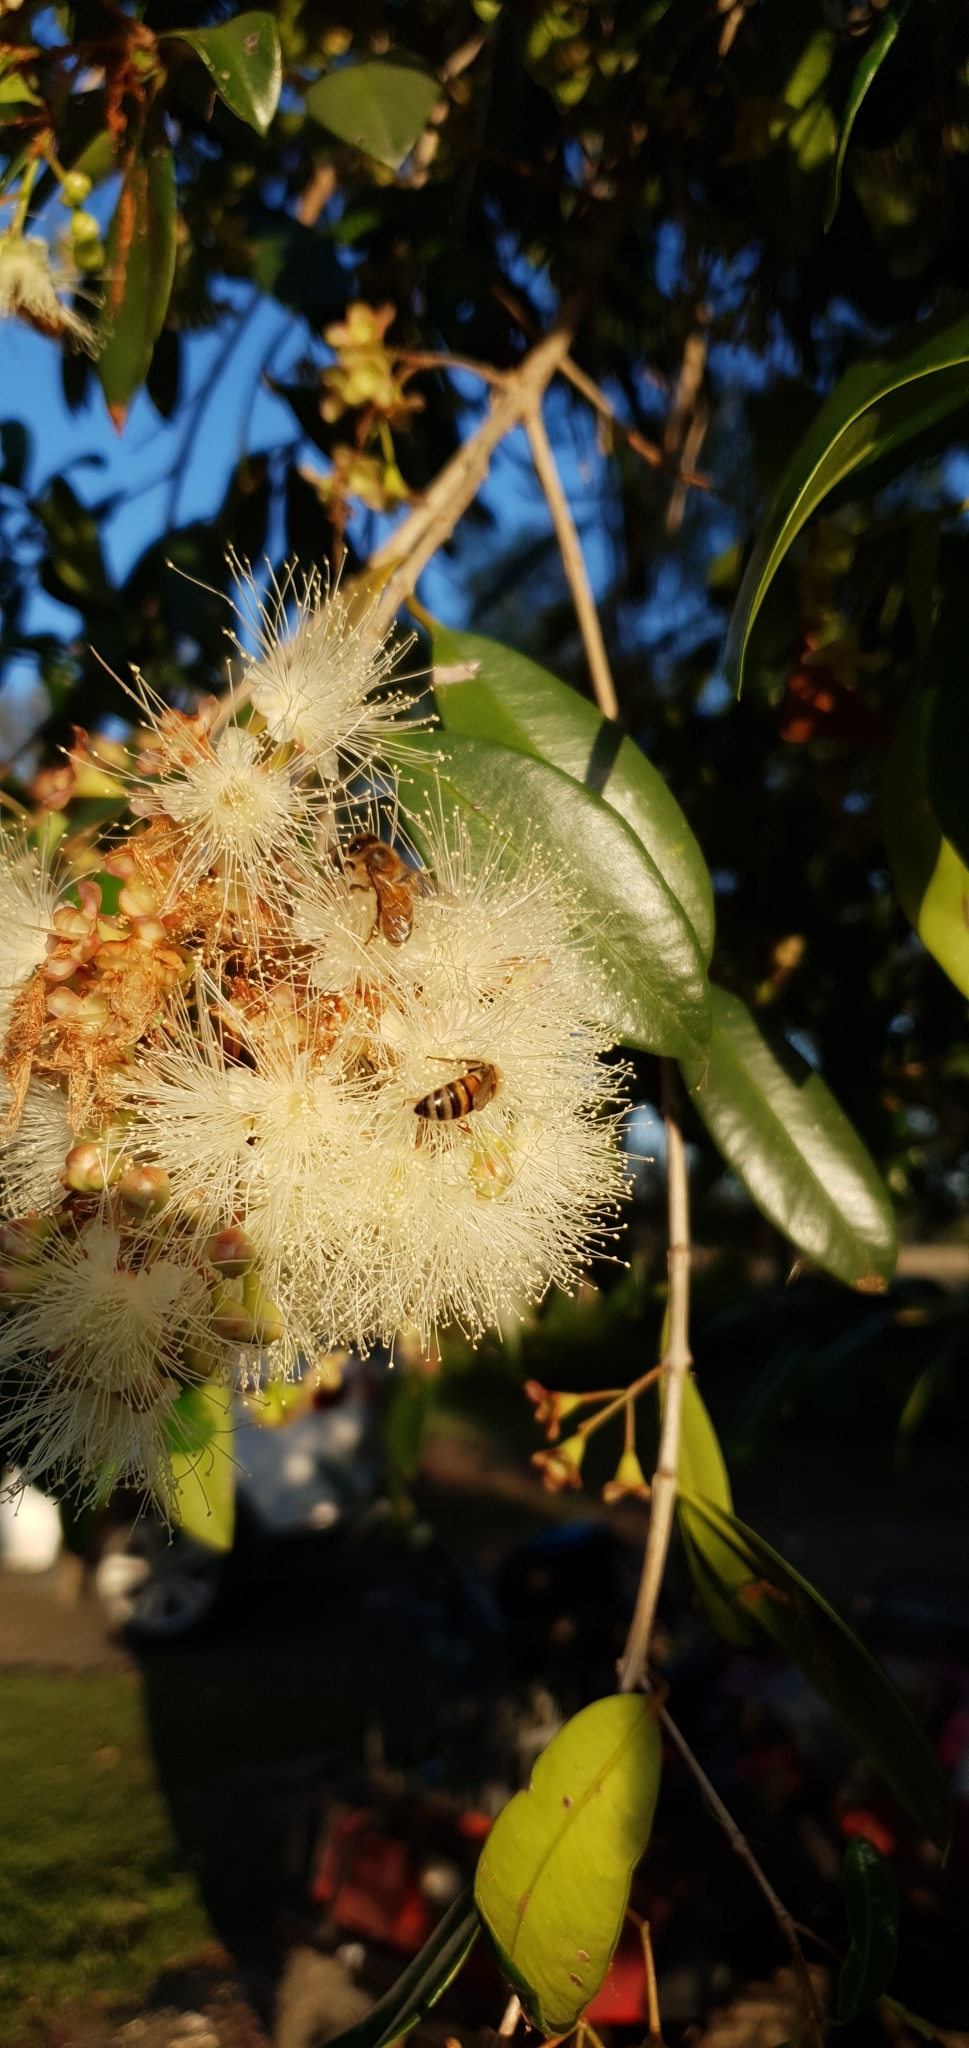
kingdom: Animalia
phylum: Arthropoda
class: Insecta
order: Hymenoptera
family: Apidae
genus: Apis
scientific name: Apis mellifera
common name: Honey bee
